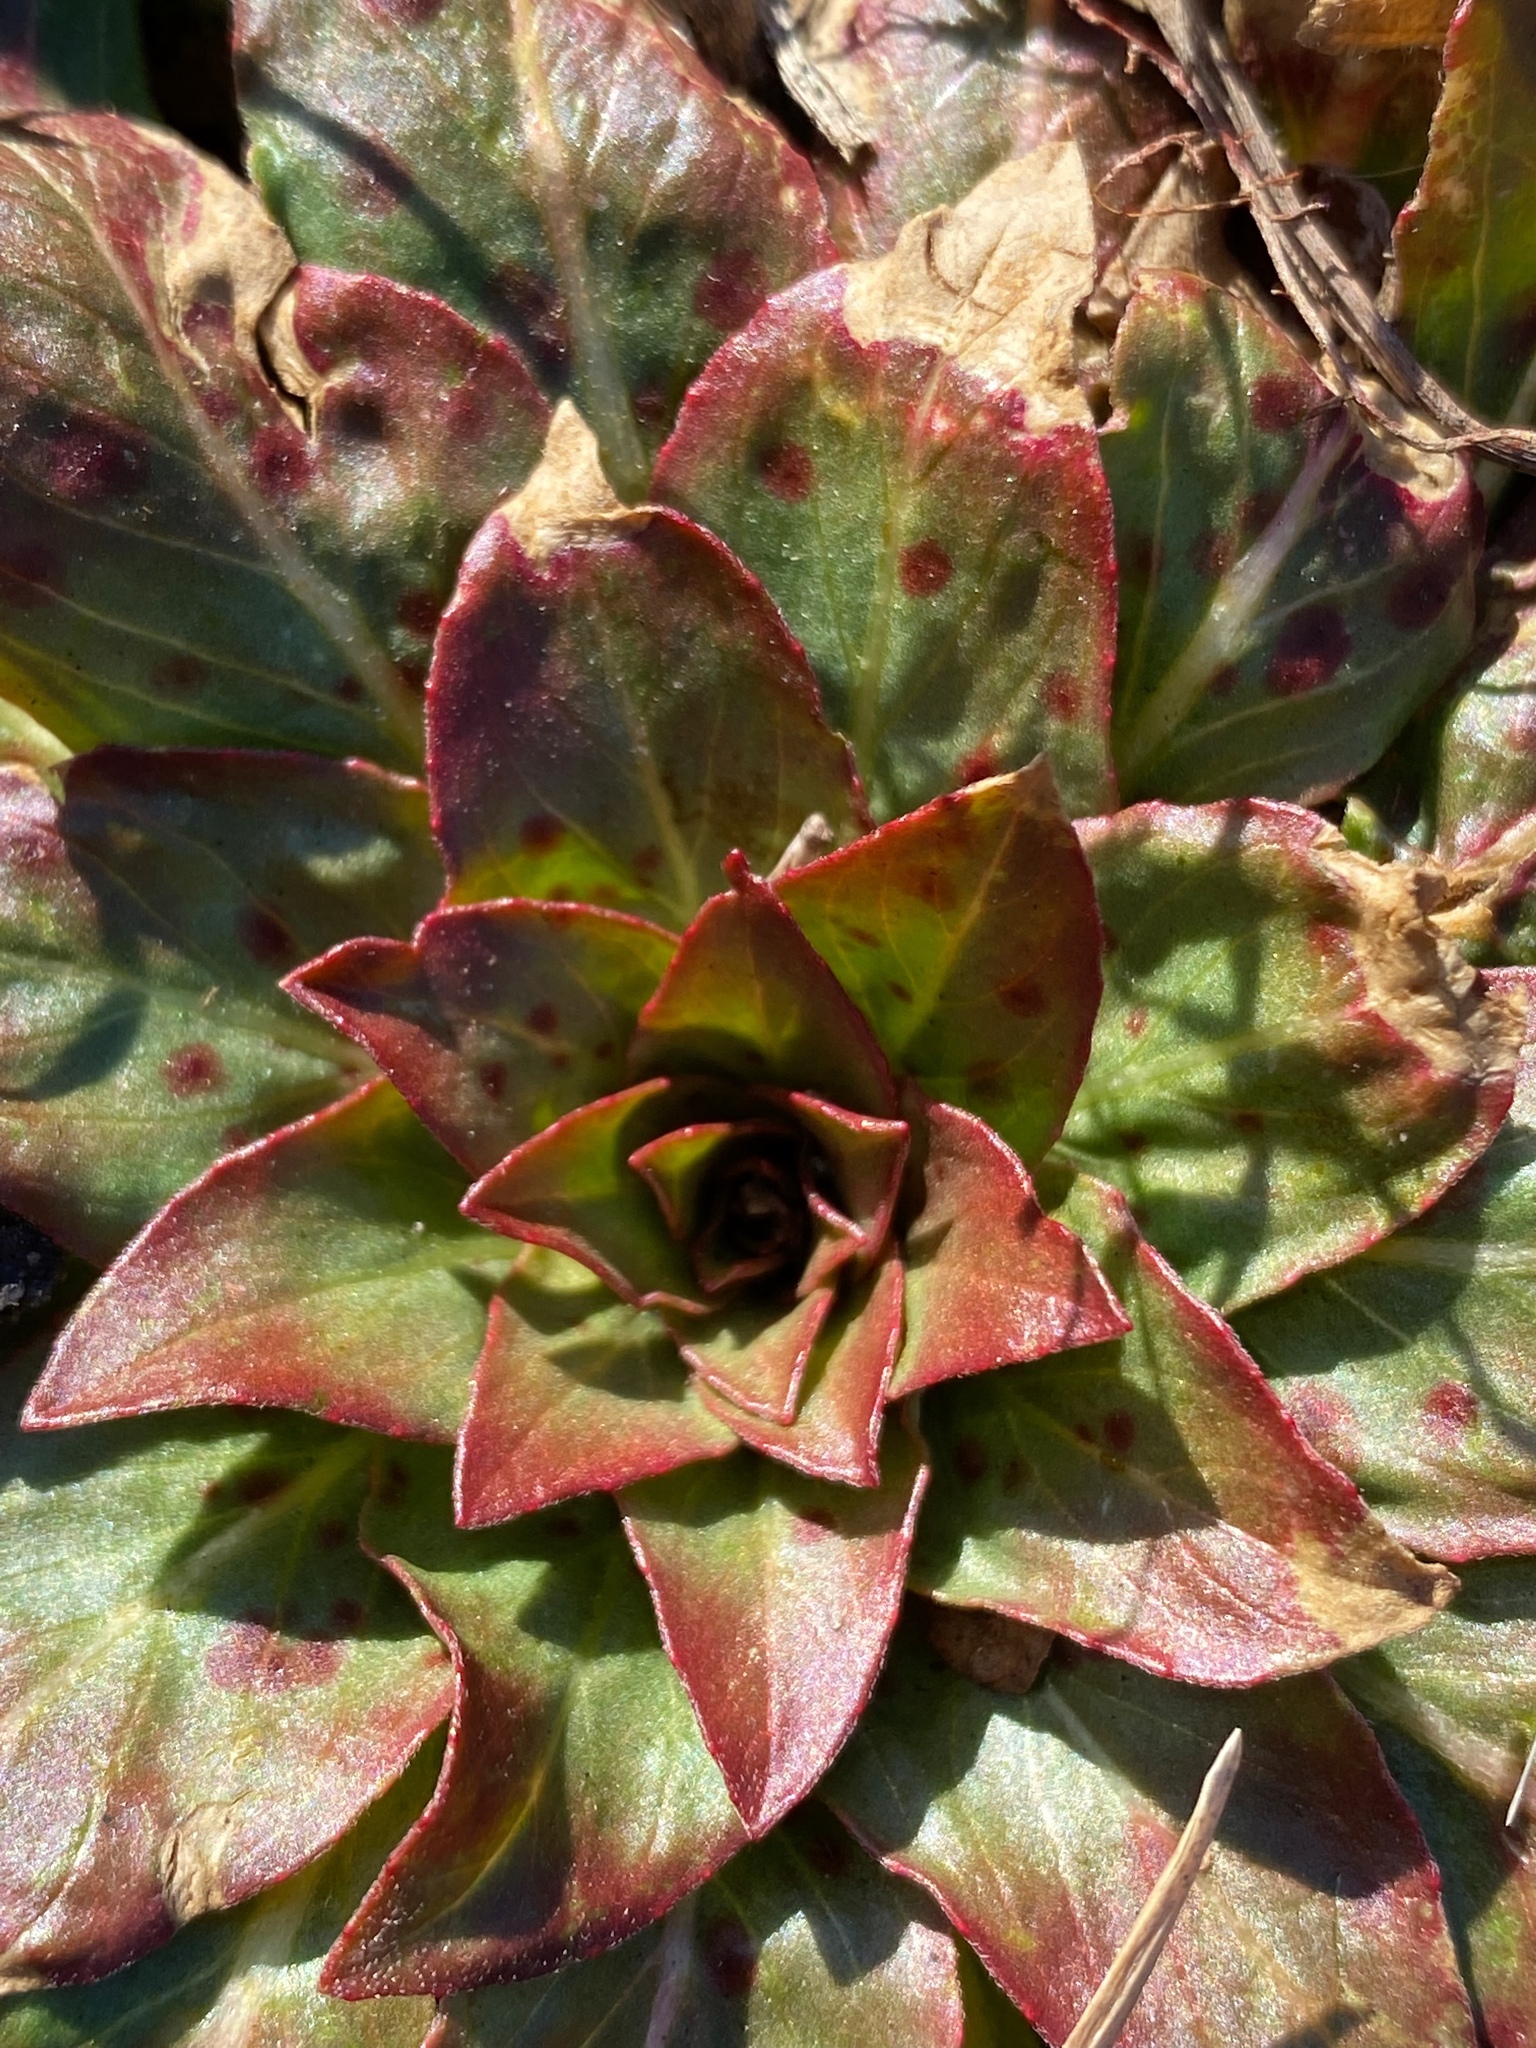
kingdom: Plantae
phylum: Tracheophyta
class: Magnoliopsida
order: Myrtales
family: Onagraceae
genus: Oenothera
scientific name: Oenothera biennis
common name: Common evening-primrose
